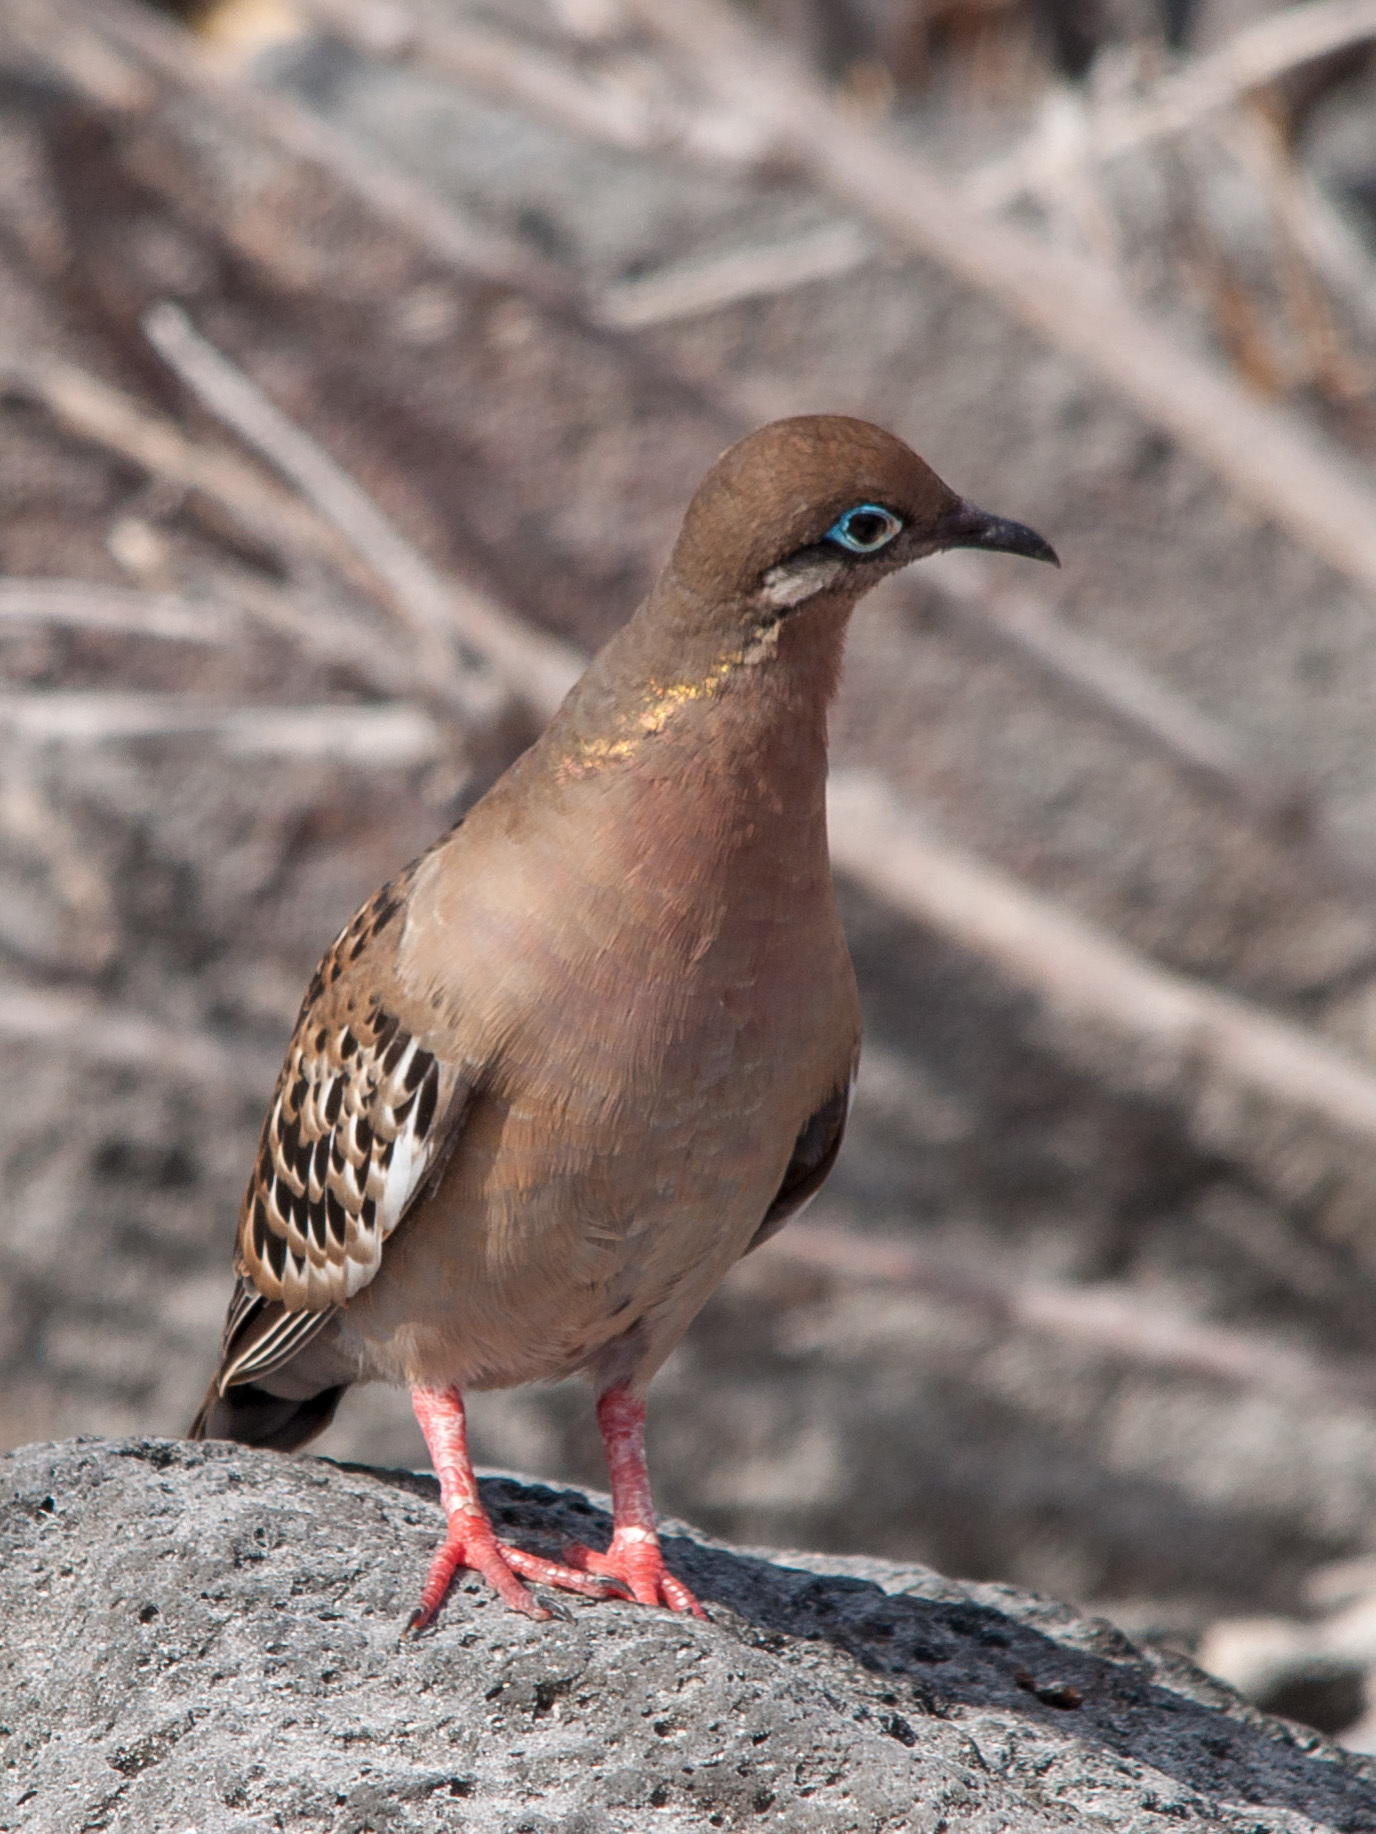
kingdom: Animalia
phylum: Chordata
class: Aves
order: Columbiformes
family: Columbidae
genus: Zenaida
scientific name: Zenaida galapagoensis
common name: Galapagos dove
